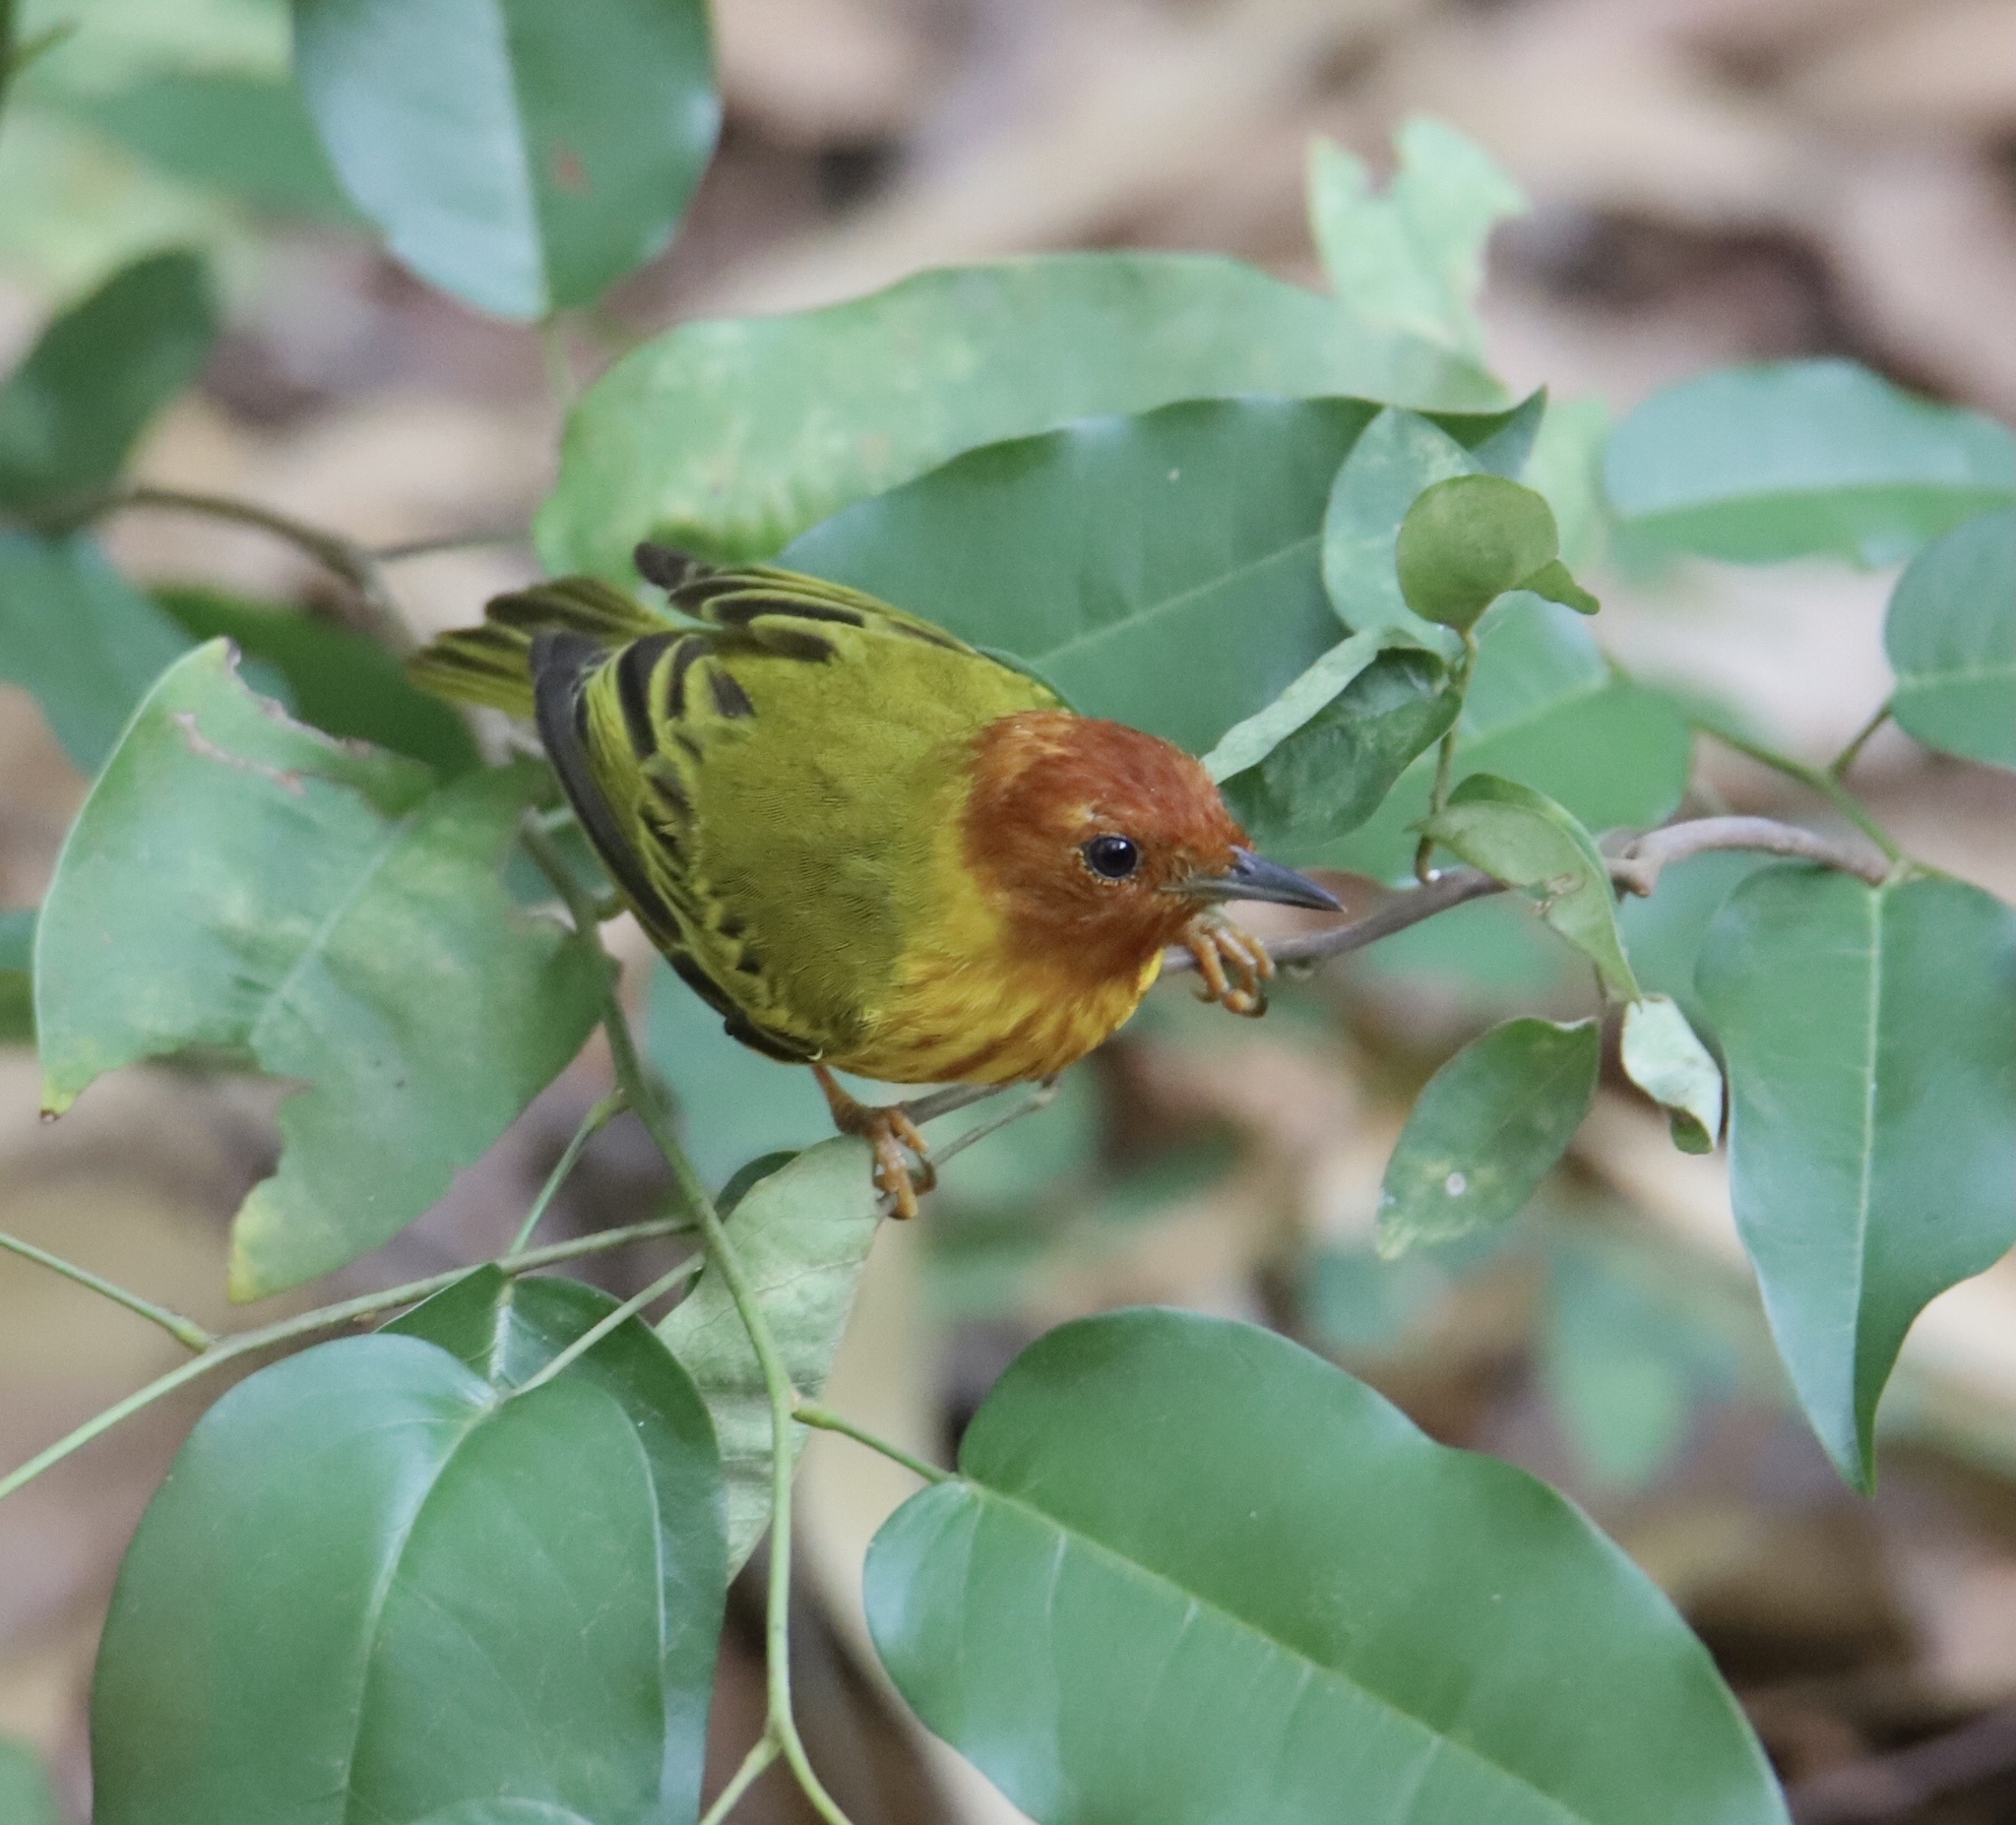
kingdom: Animalia
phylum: Chordata
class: Aves
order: Passeriformes
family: Parulidae
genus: Setophaga
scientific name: Setophaga petechia
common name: Yellow warbler
